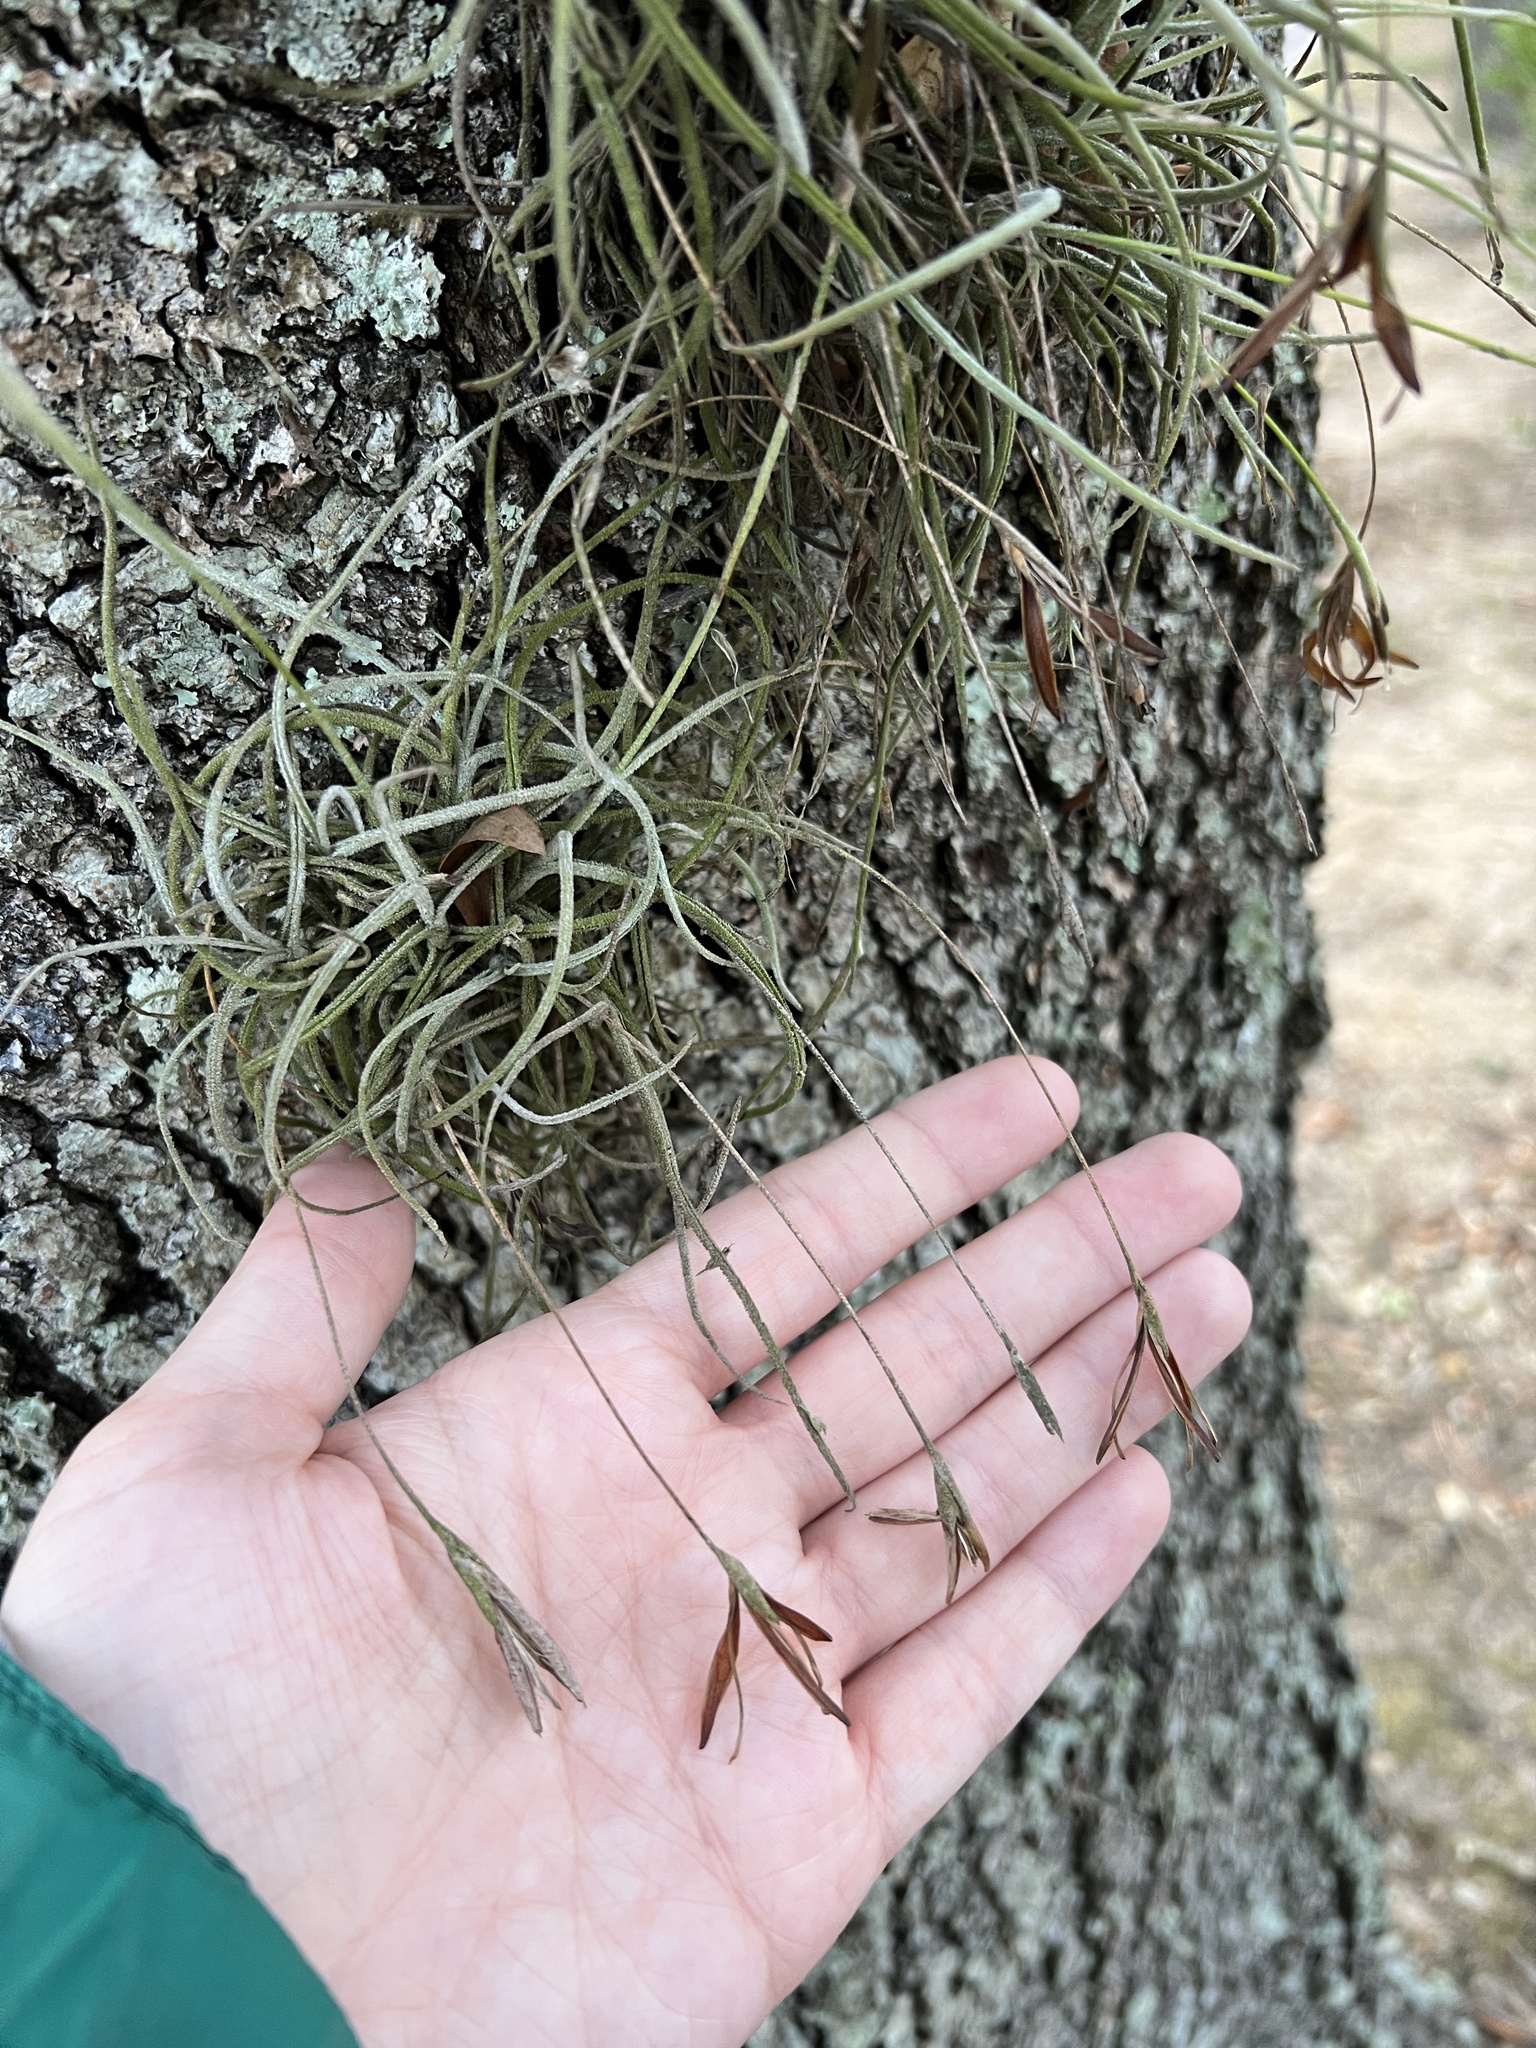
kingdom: Plantae
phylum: Tracheophyta
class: Liliopsida
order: Poales
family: Bromeliaceae
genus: Tillandsia
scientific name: Tillandsia recurvata
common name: Small ballmoss
